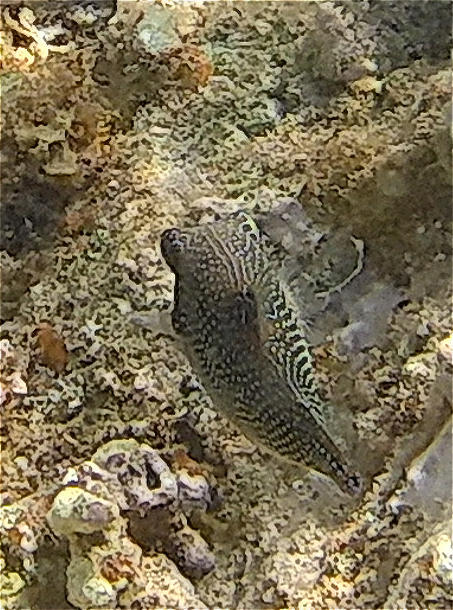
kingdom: Animalia
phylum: Chordata
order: Tetraodontiformes
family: Tetraodontidae
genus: Canthigaster
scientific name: Canthigaster margaritata
